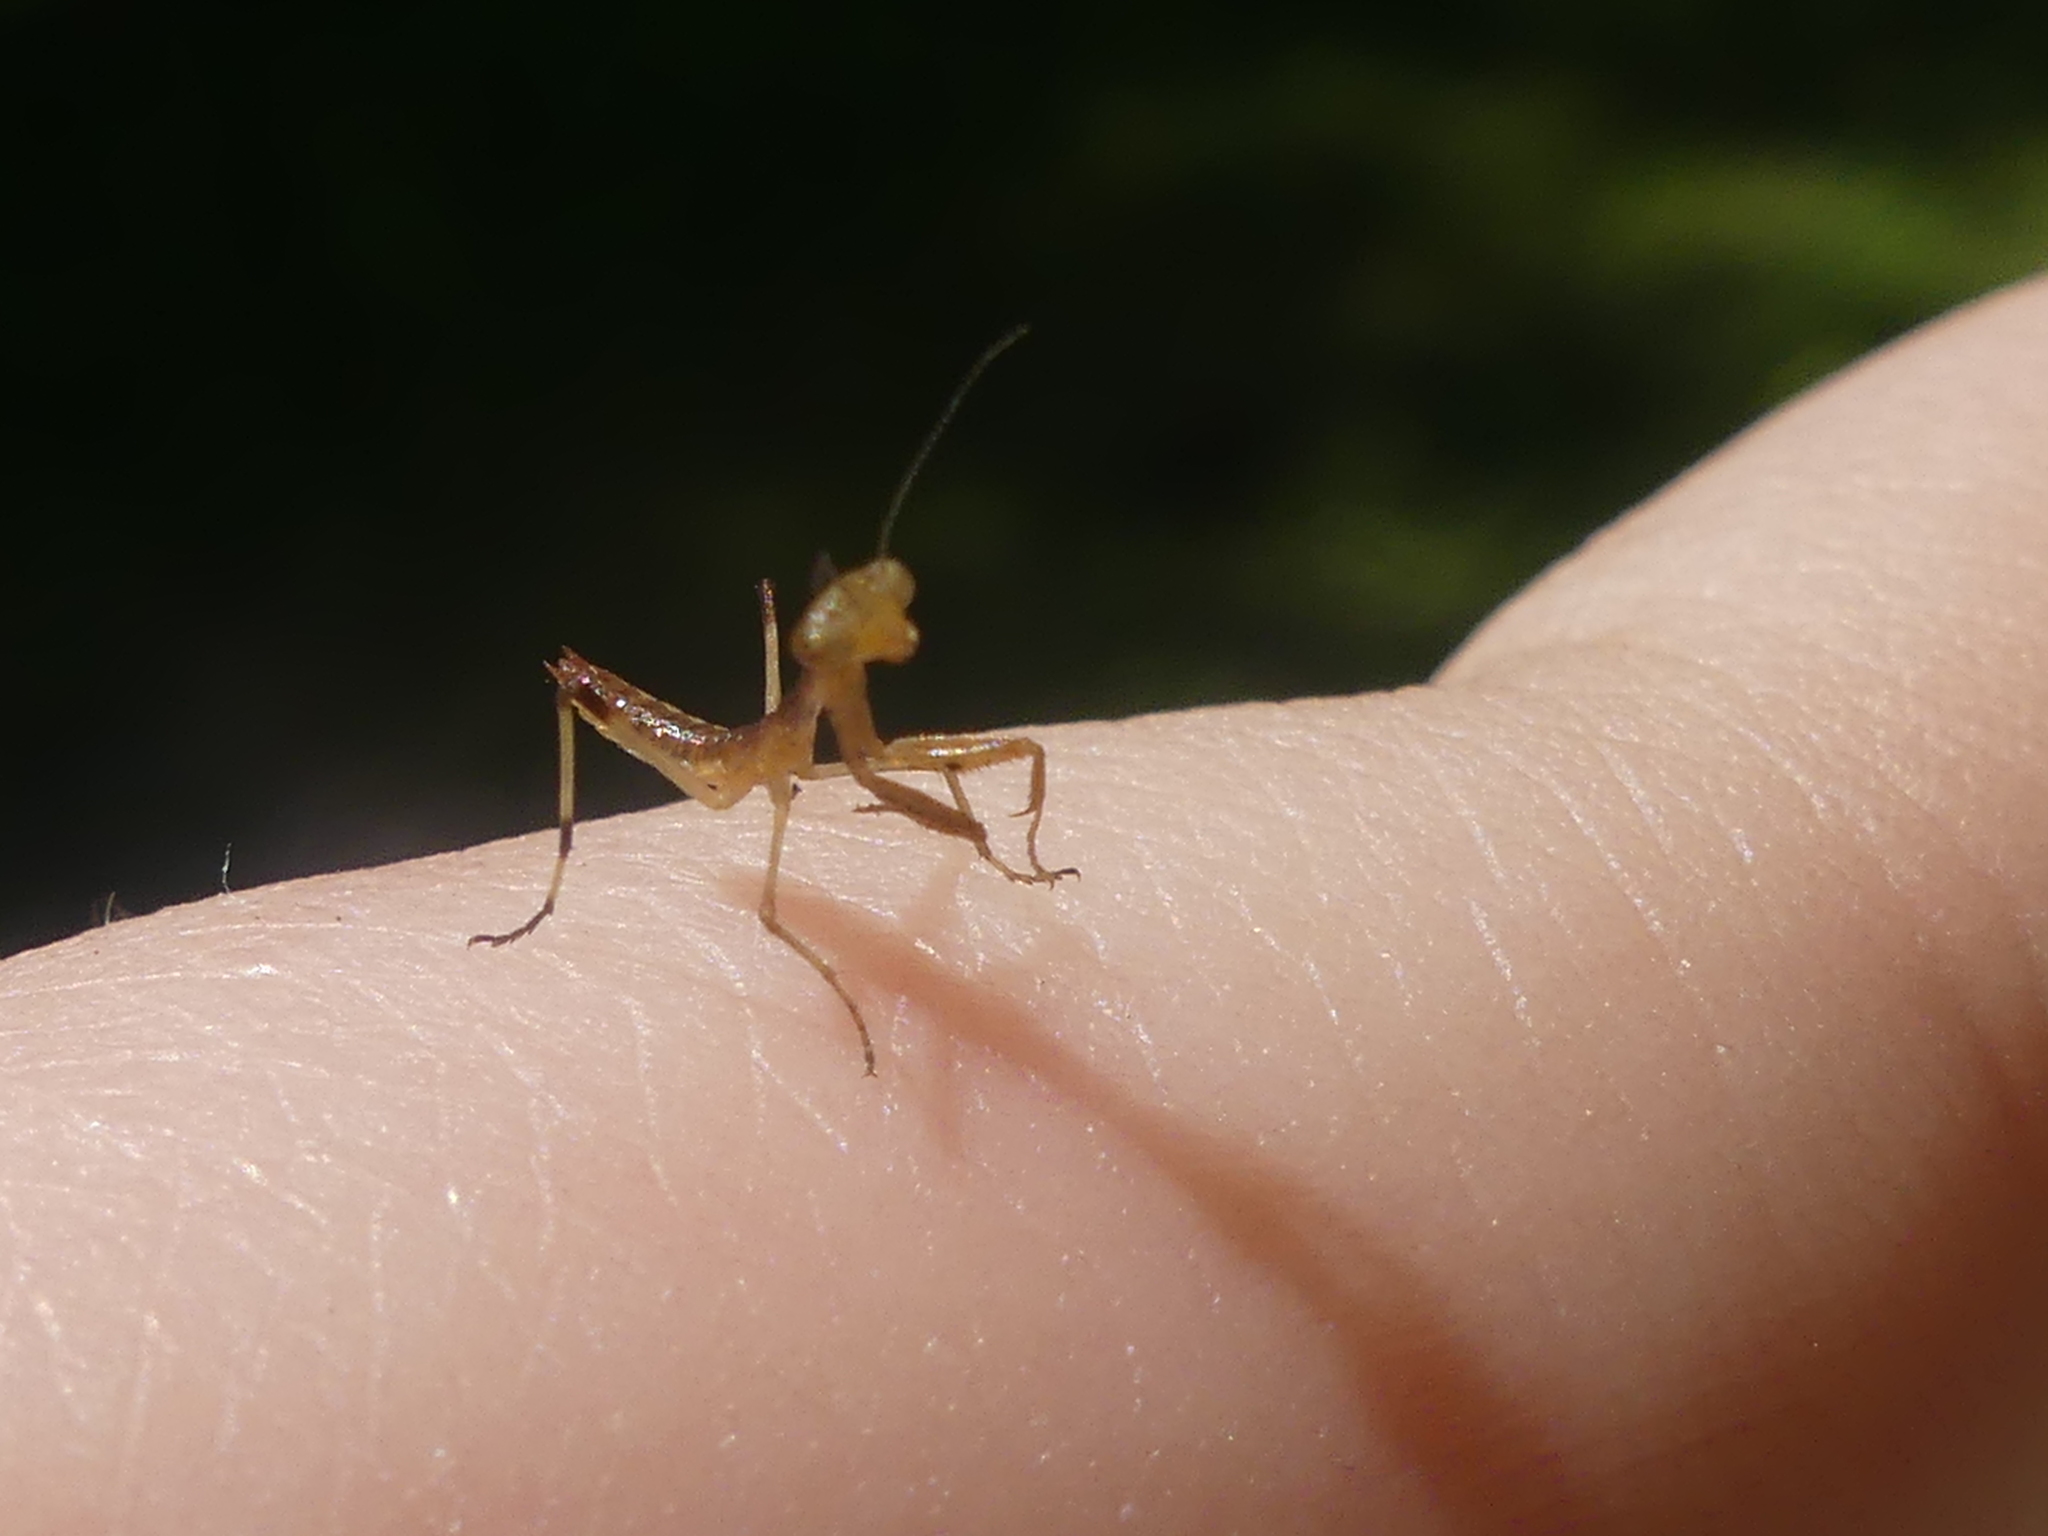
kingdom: Animalia
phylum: Arthropoda
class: Insecta
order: Mantodea
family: Mantidae
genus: Stagmomantis
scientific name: Stagmomantis carolina
